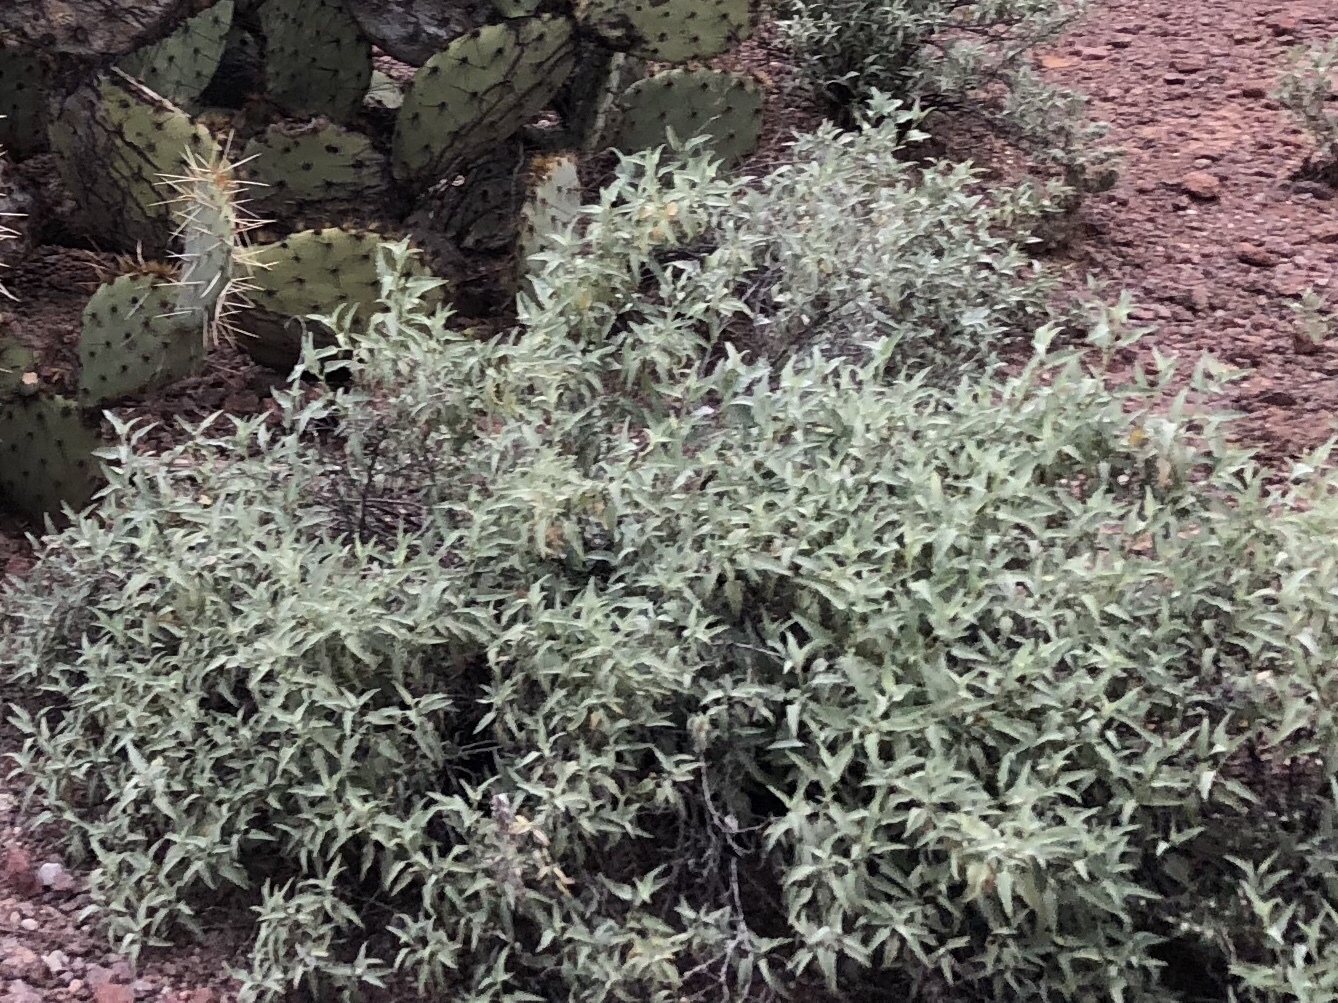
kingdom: Plantae
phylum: Tracheophyta
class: Magnoliopsida
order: Asterales
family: Asteraceae
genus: Ambrosia
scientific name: Ambrosia deltoidea
